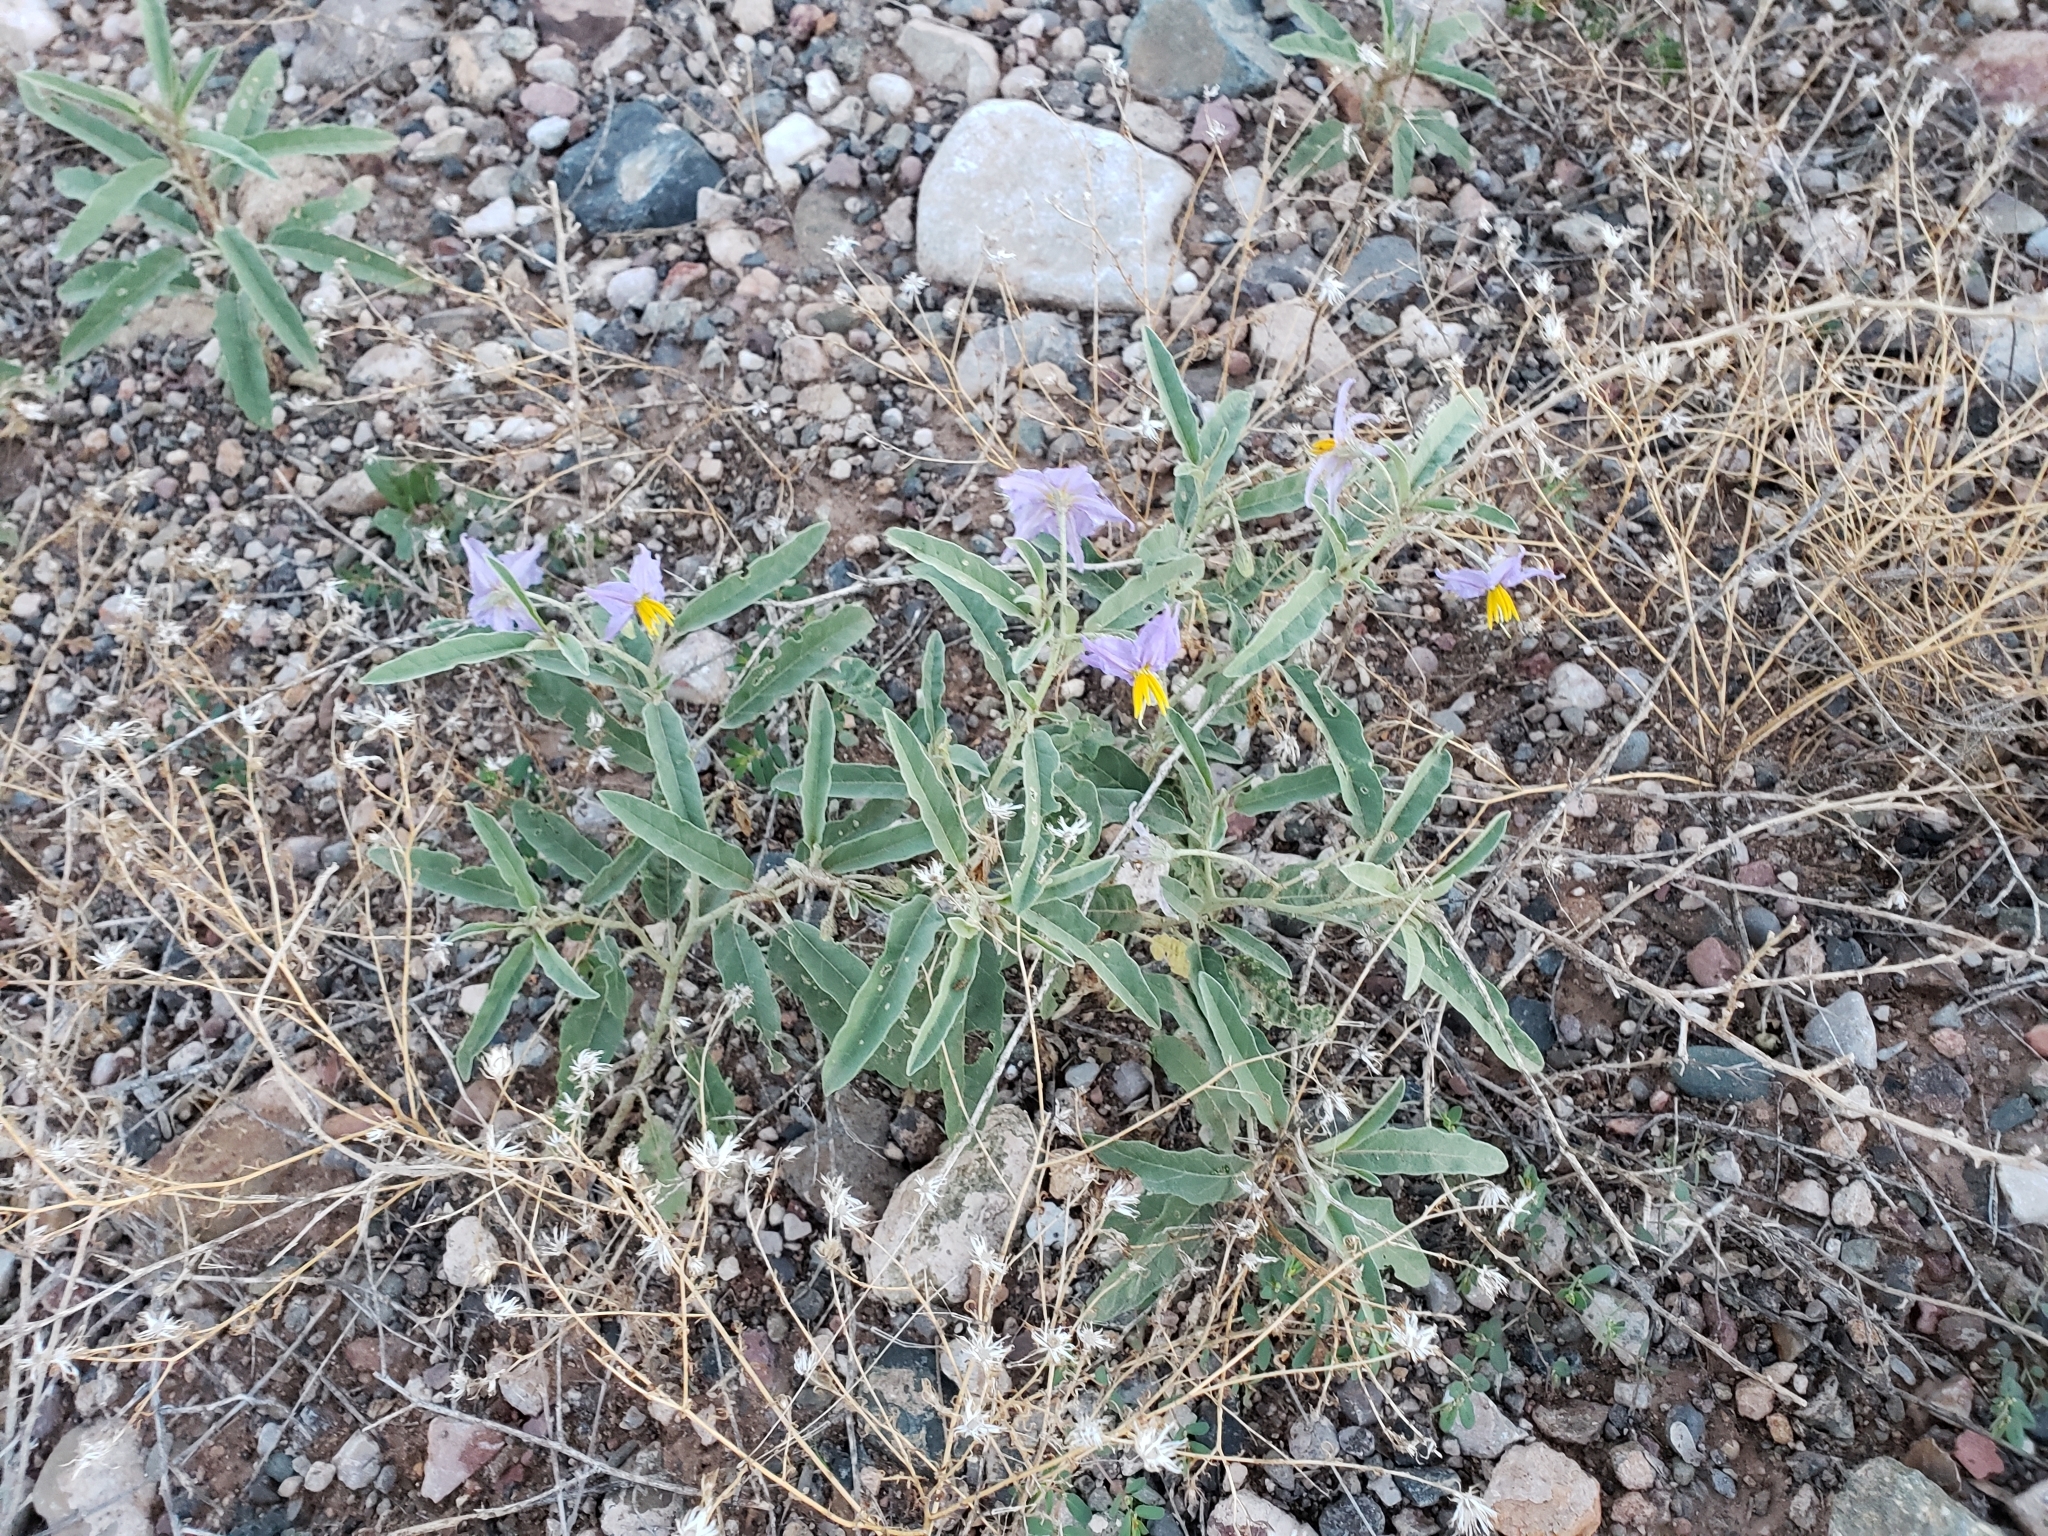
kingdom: Plantae
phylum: Tracheophyta
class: Magnoliopsida
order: Solanales
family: Solanaceae
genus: Solanum
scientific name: Solanum elaeagnifolium
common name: Silverleaf nightshade
